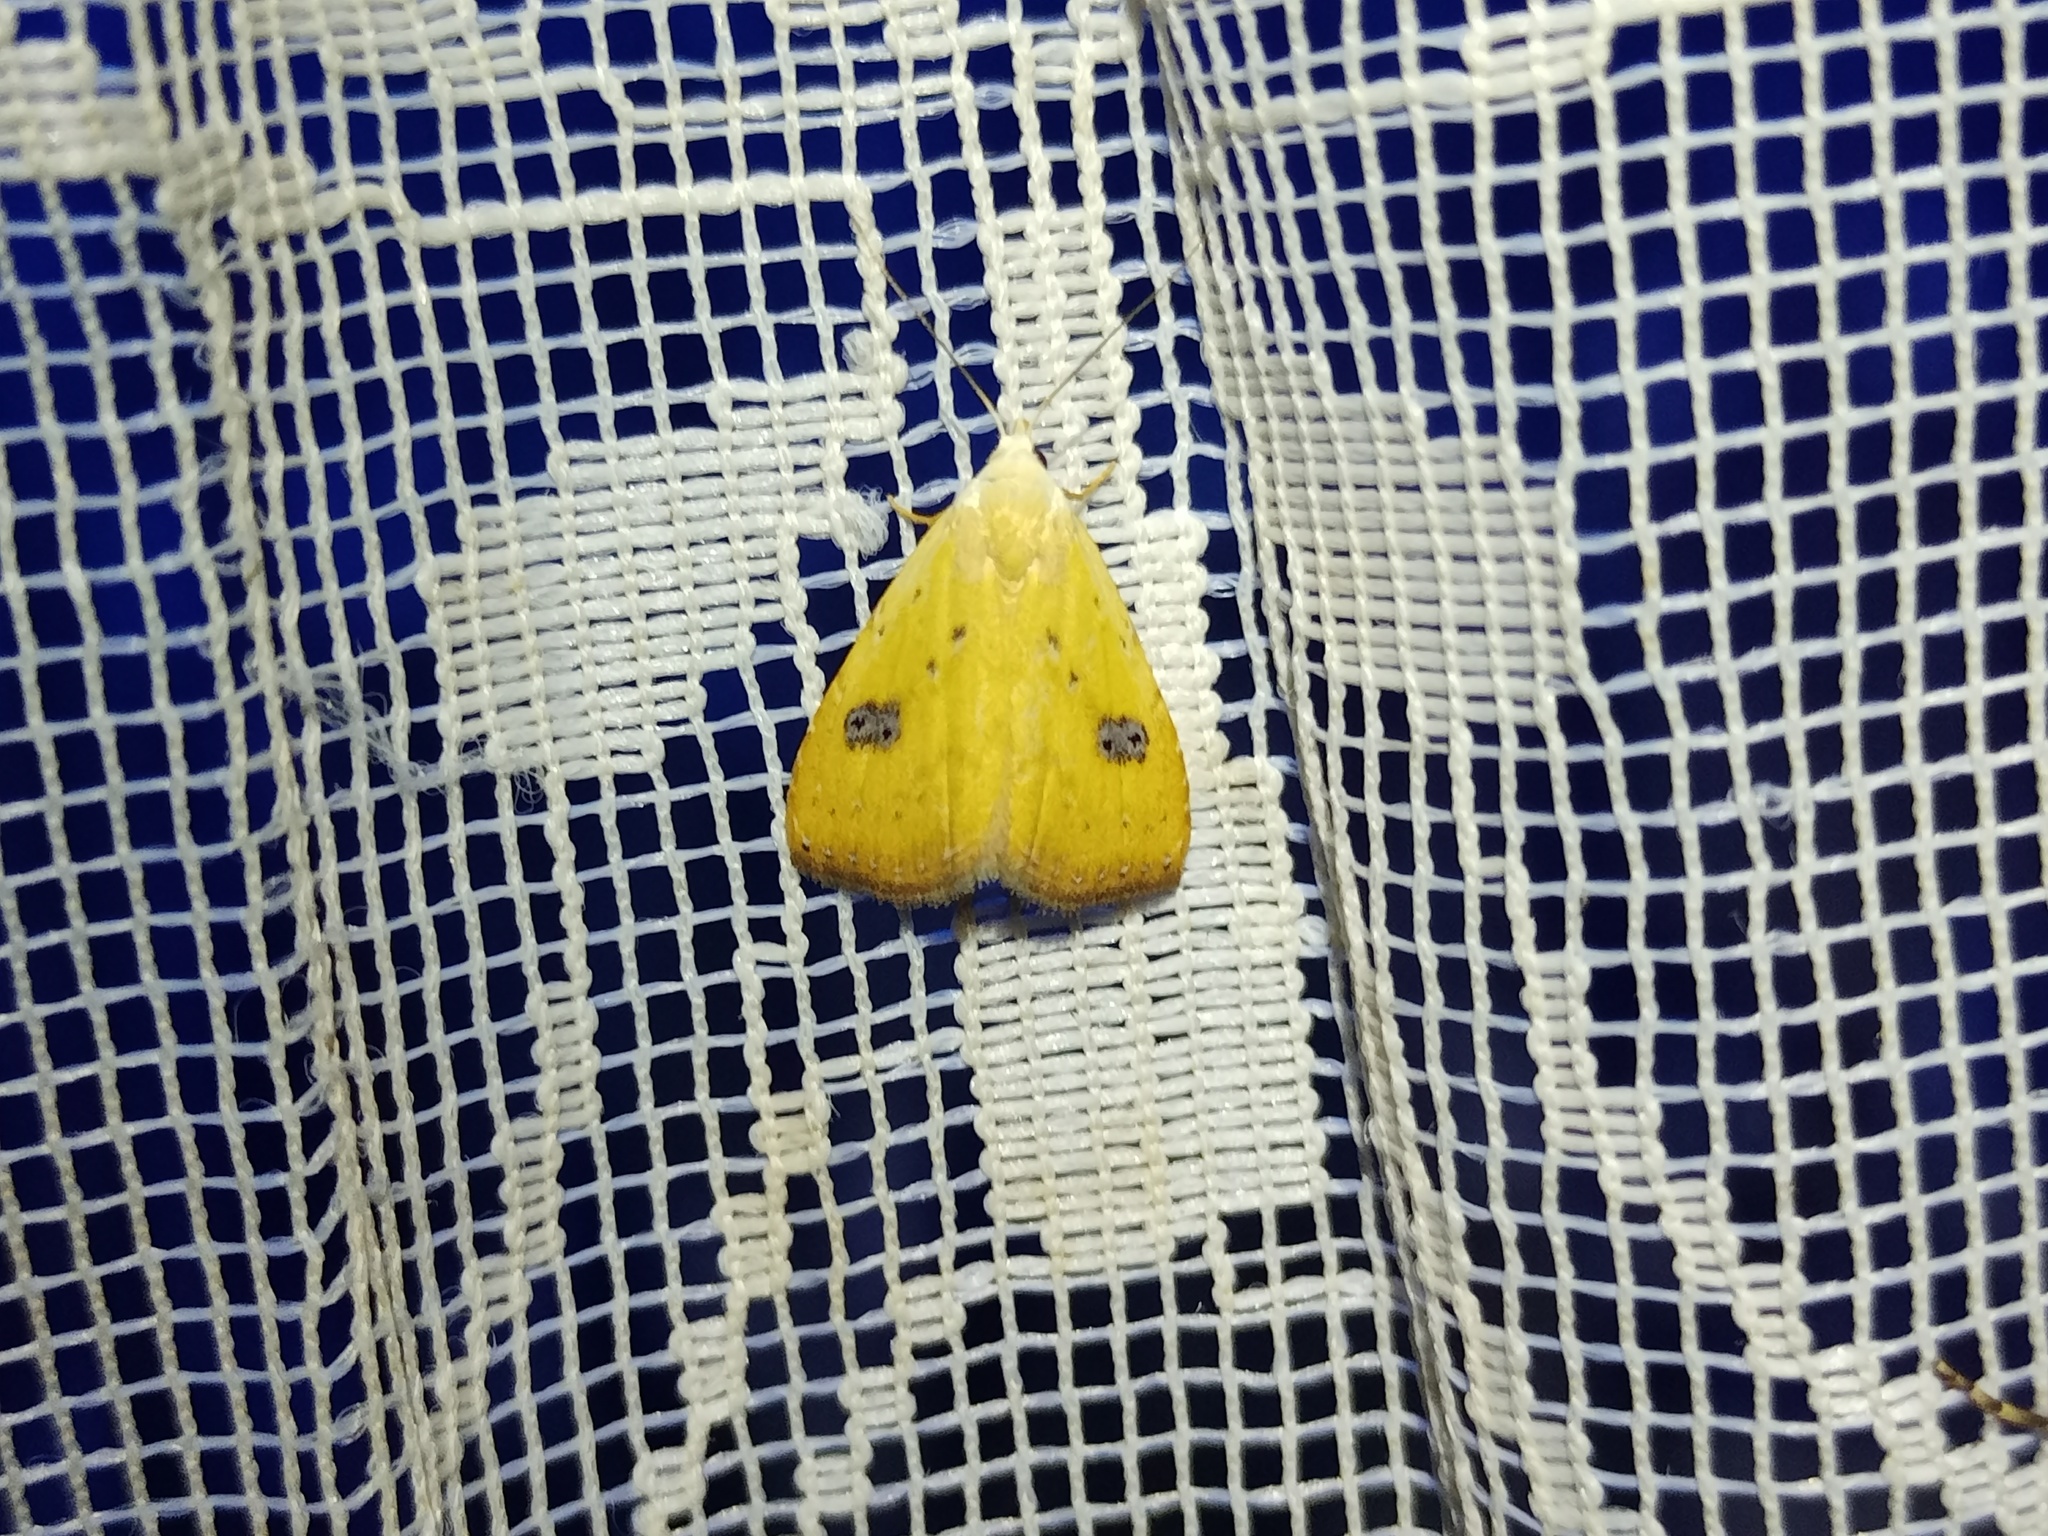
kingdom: Animalia
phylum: Arthropoda
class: Insecta
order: Lepidoptera
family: Erebidae
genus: Rivula
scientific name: Rivula sericealis
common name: Straw dot
